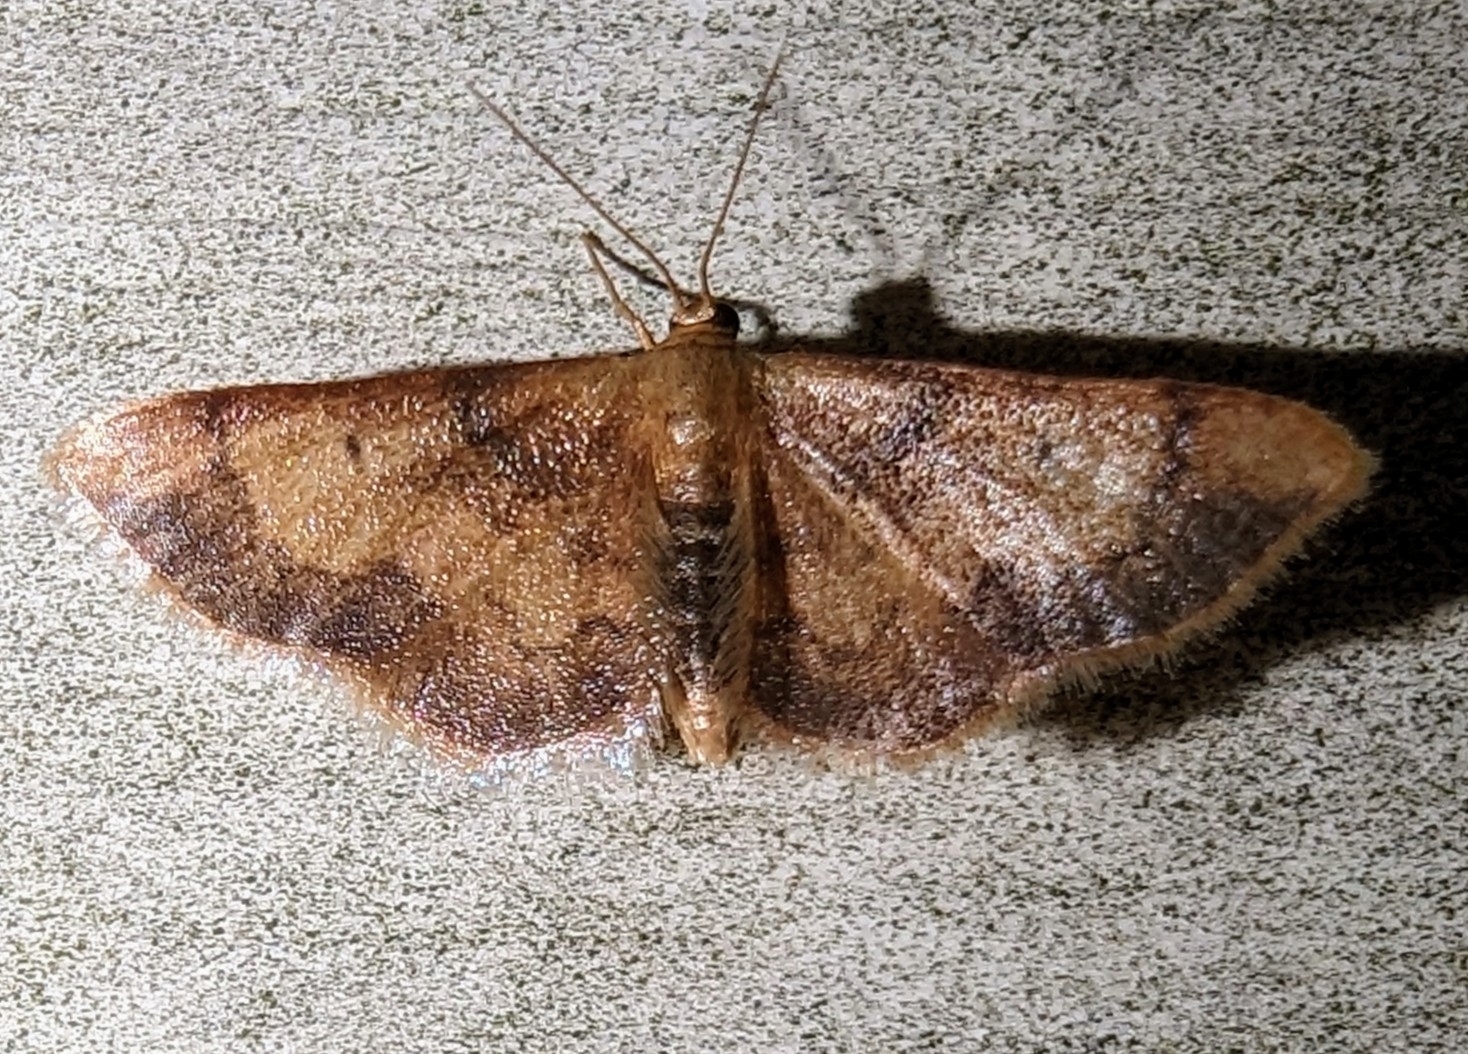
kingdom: Animalia
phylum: Arthropoda
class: Insecta
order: Lepidoptera
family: Geometridae
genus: Idaea
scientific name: Idaea demissaria
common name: Red-bordered wave
